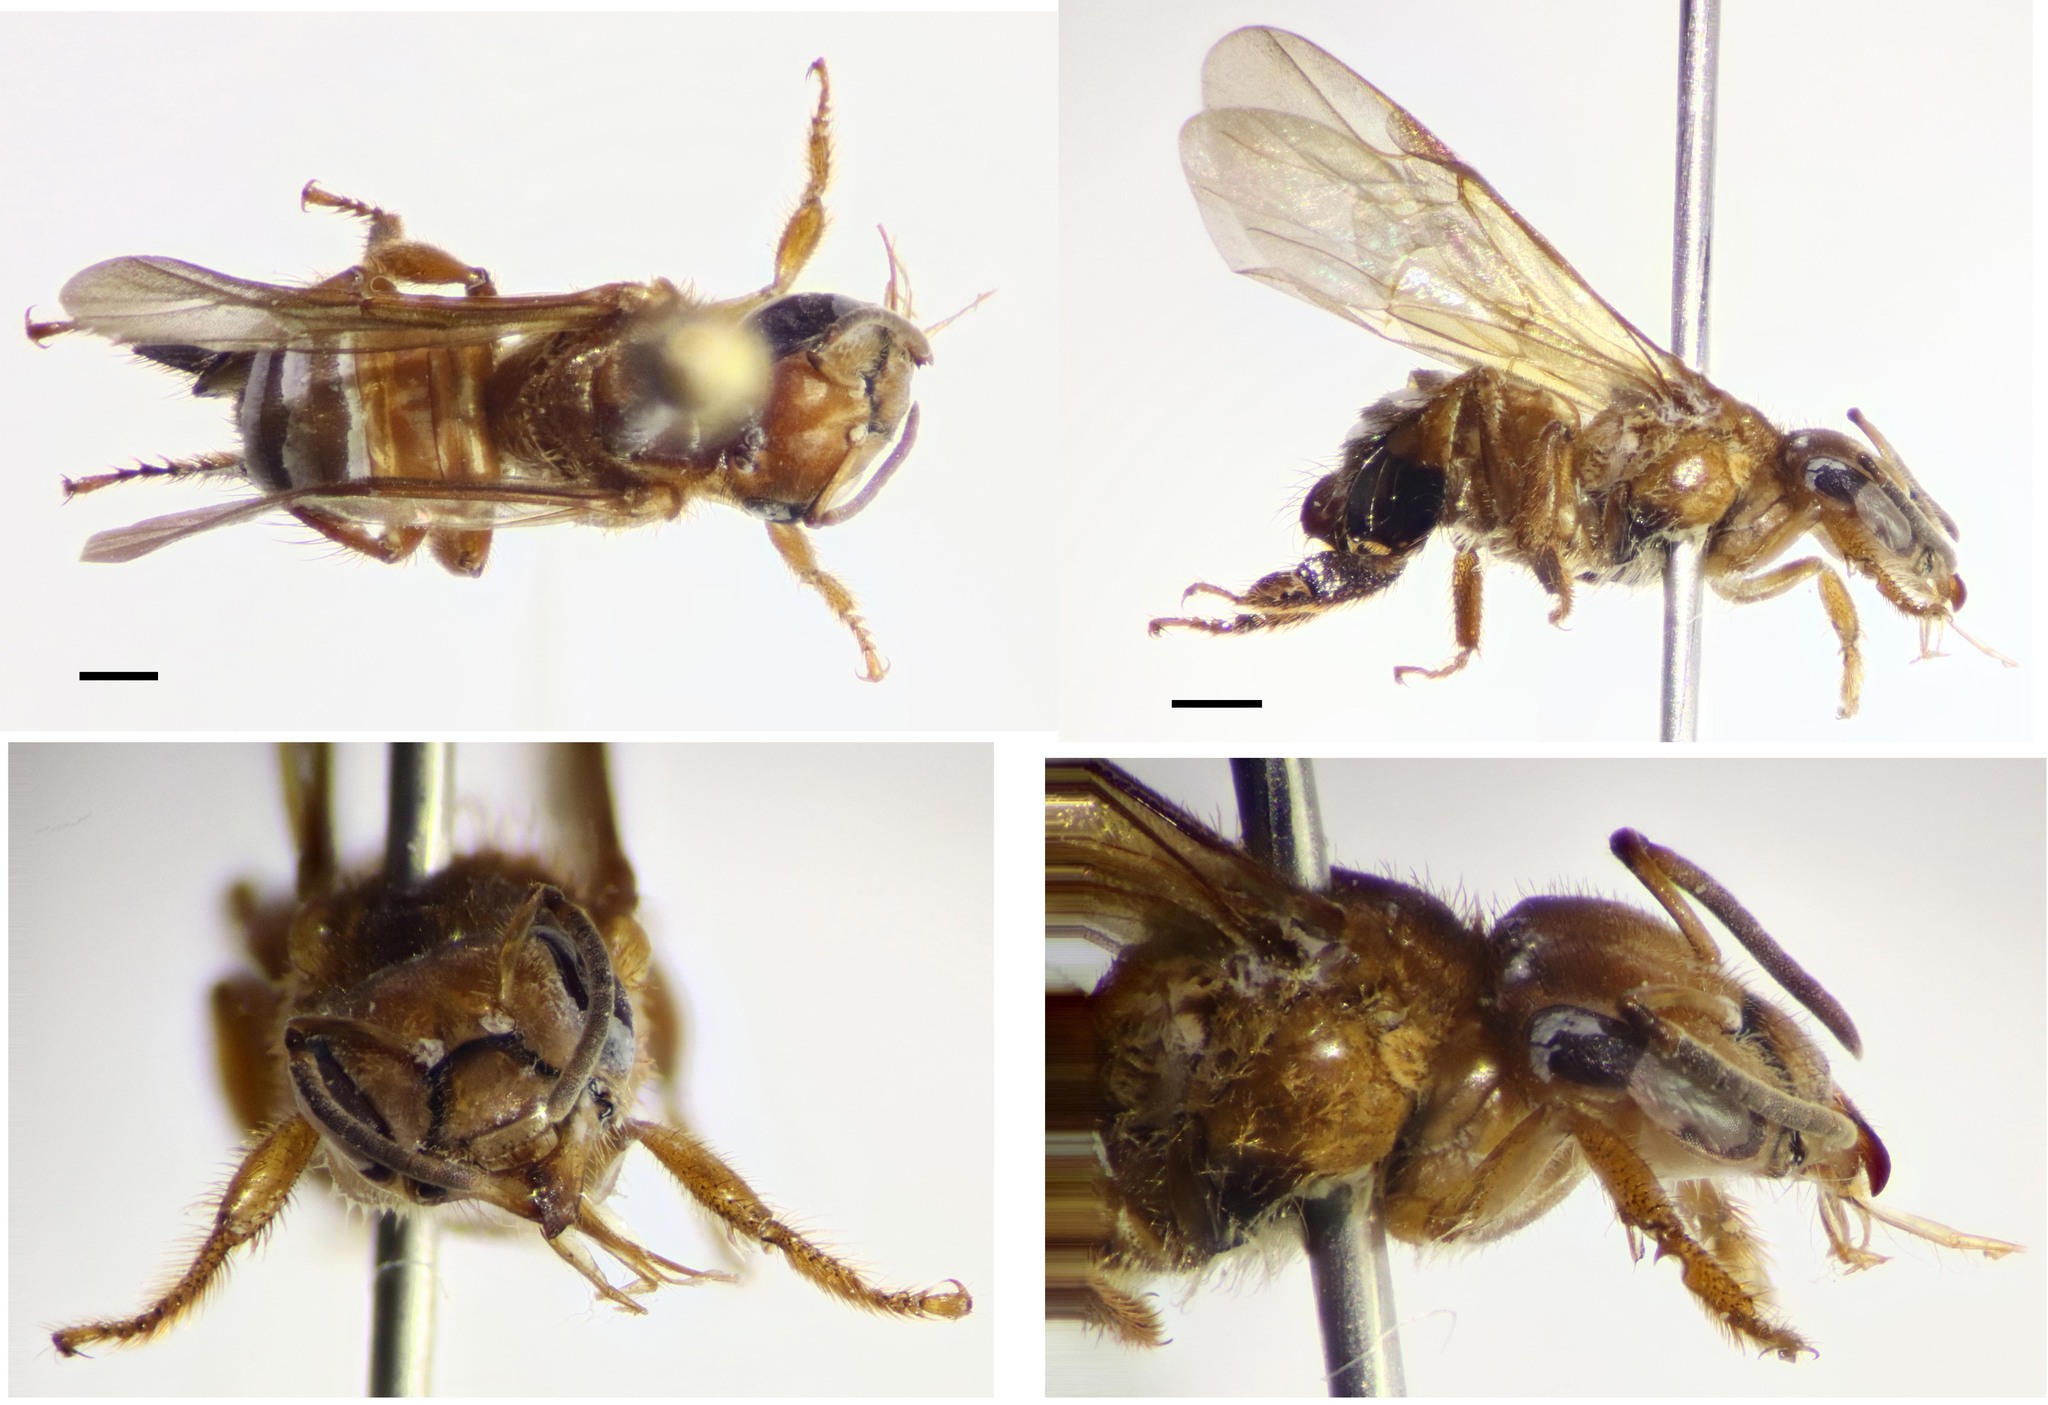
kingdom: Animalia
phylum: Arthropoda
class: Insecta
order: Hymenoptera
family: Apidae
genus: Partamona
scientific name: Partamona testacea
